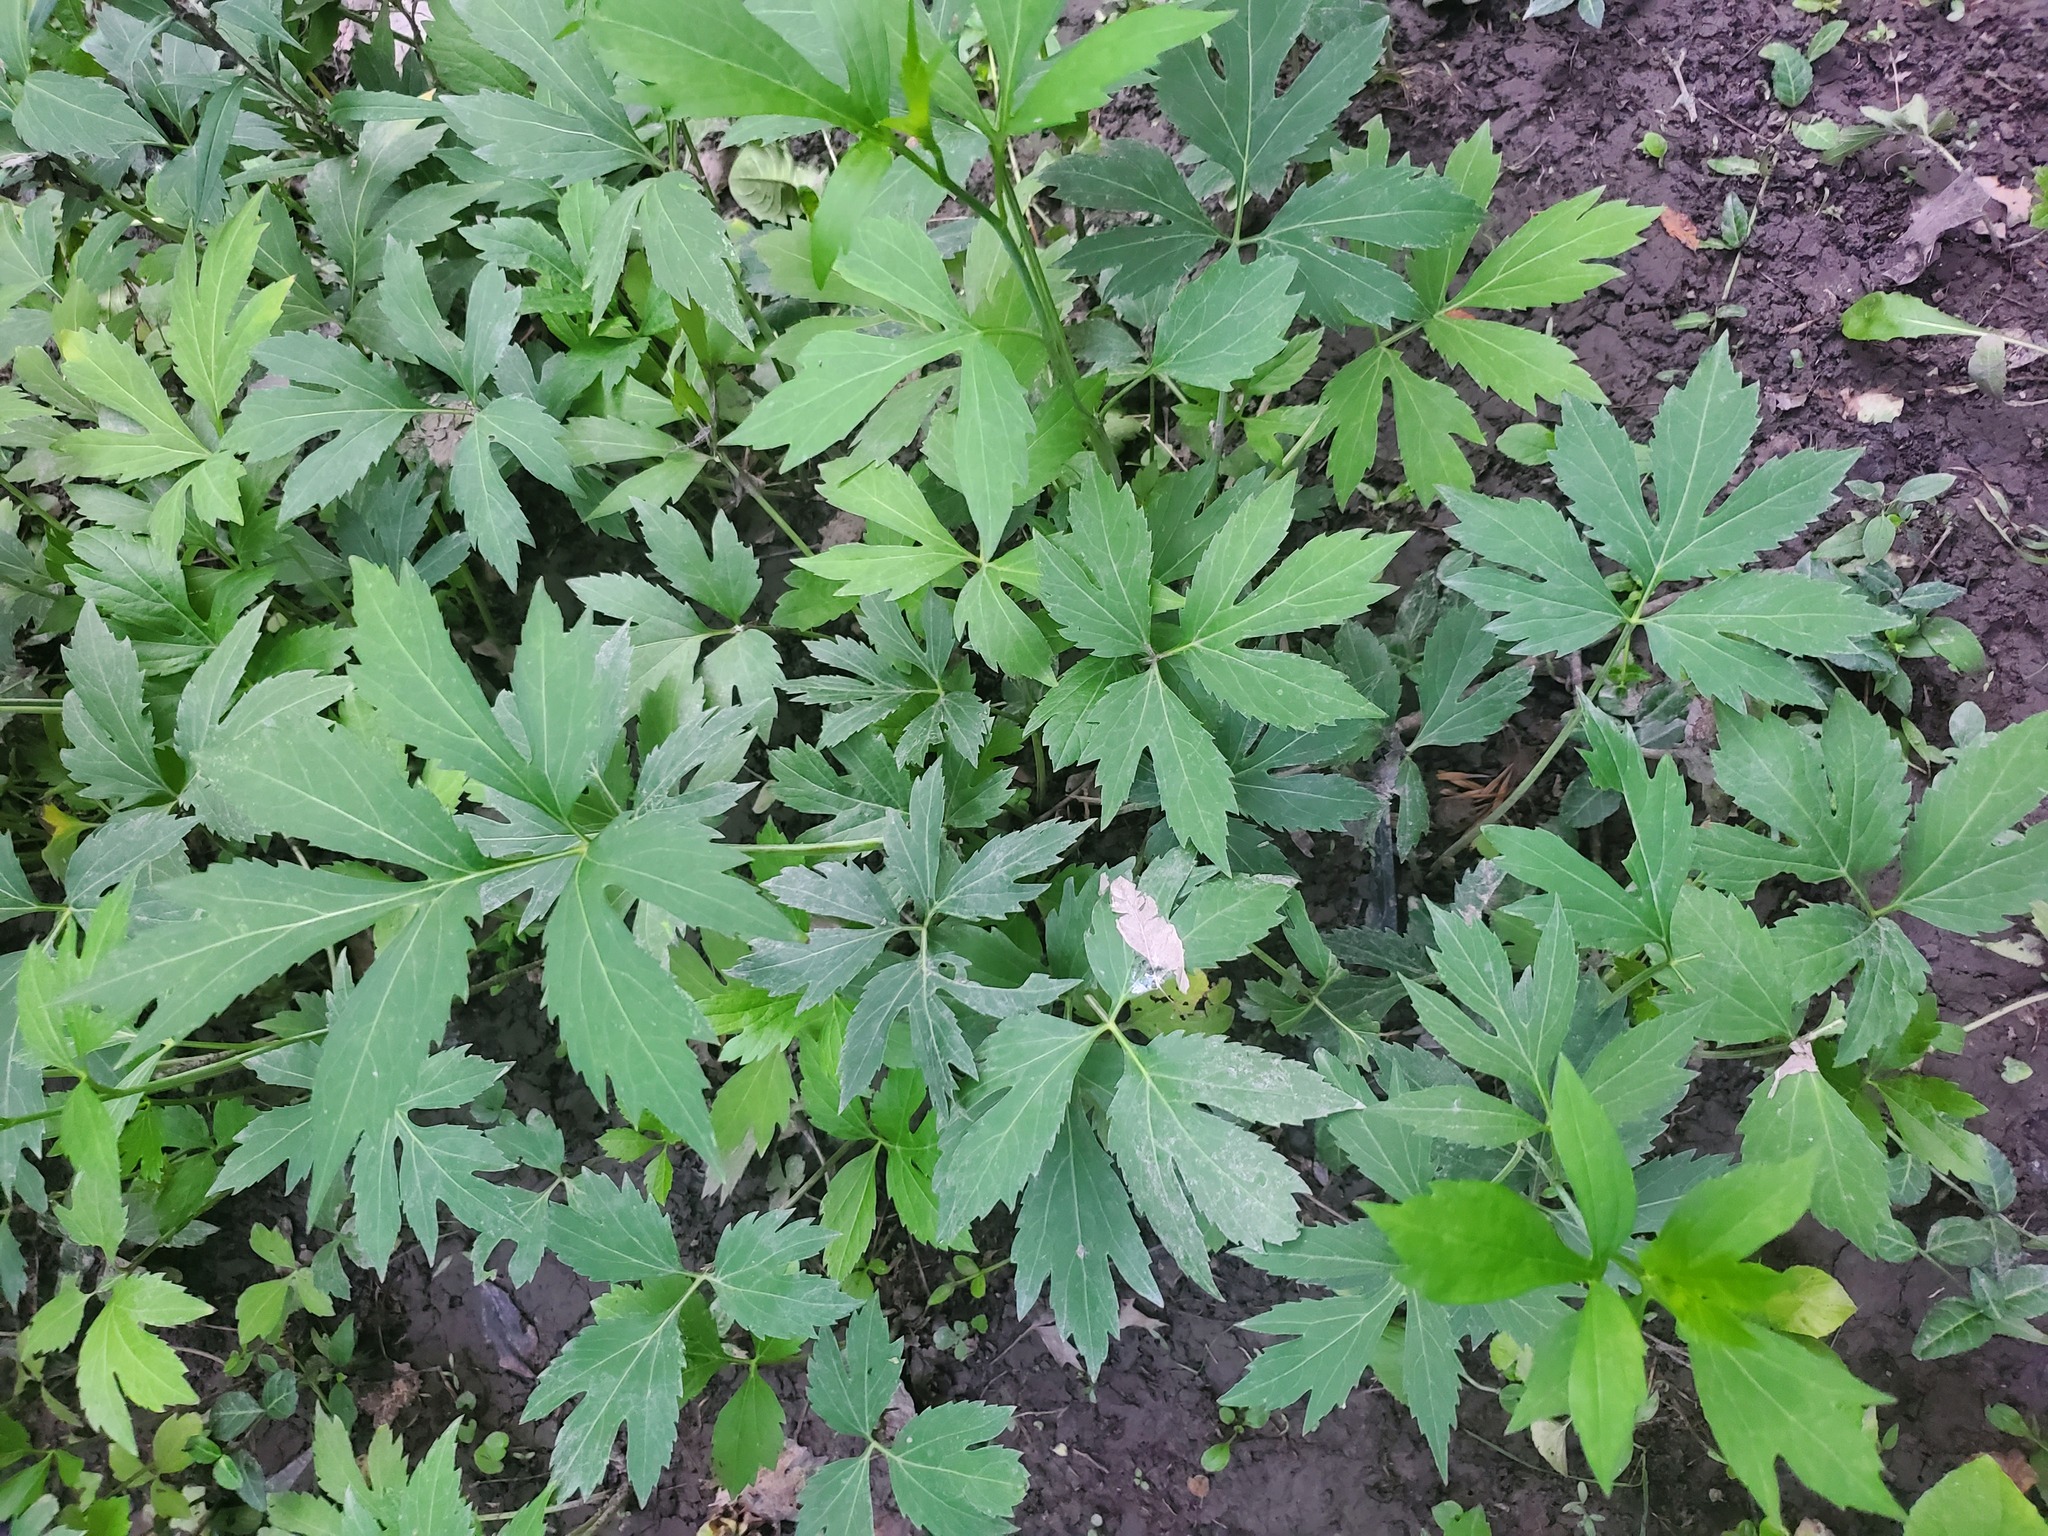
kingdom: Plantae
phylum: Tracheophyta
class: Magnoliopsida
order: Asterales
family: Asteraceae
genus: Rudbeckia
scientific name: Rudbeckia laciniata
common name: Coneflower
